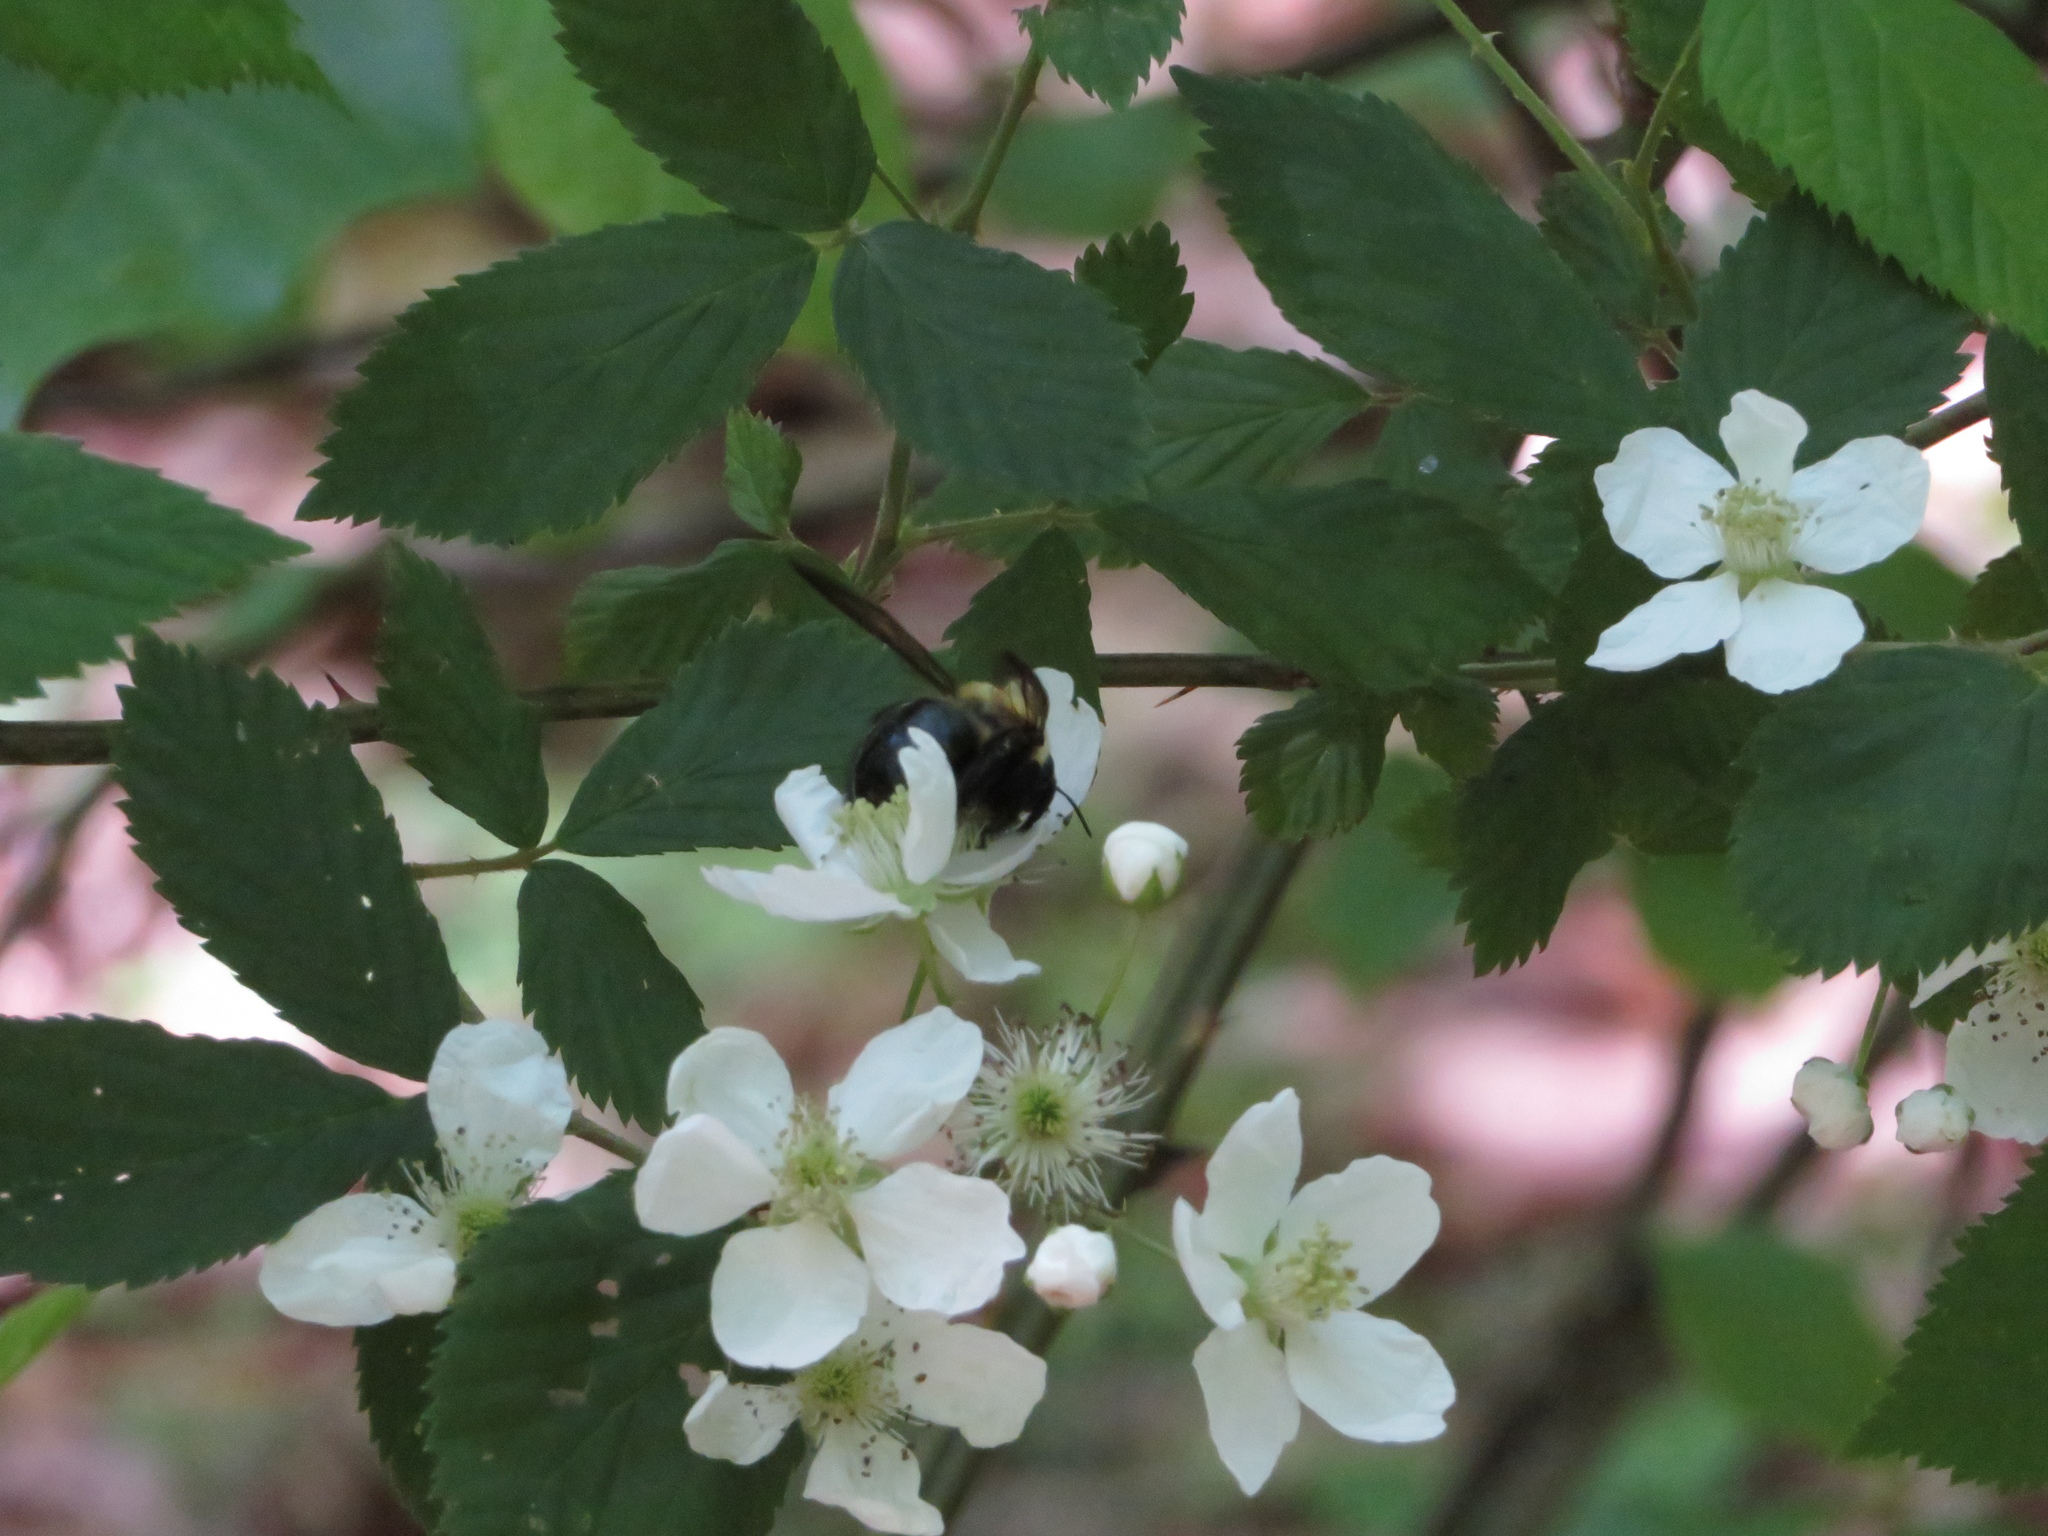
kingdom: Animalia
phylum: Arthropoda
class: Insecta
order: Hymenoptera
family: Apidae
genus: Xylocopa
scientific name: Xylocopa virginica
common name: Carpenter bee
